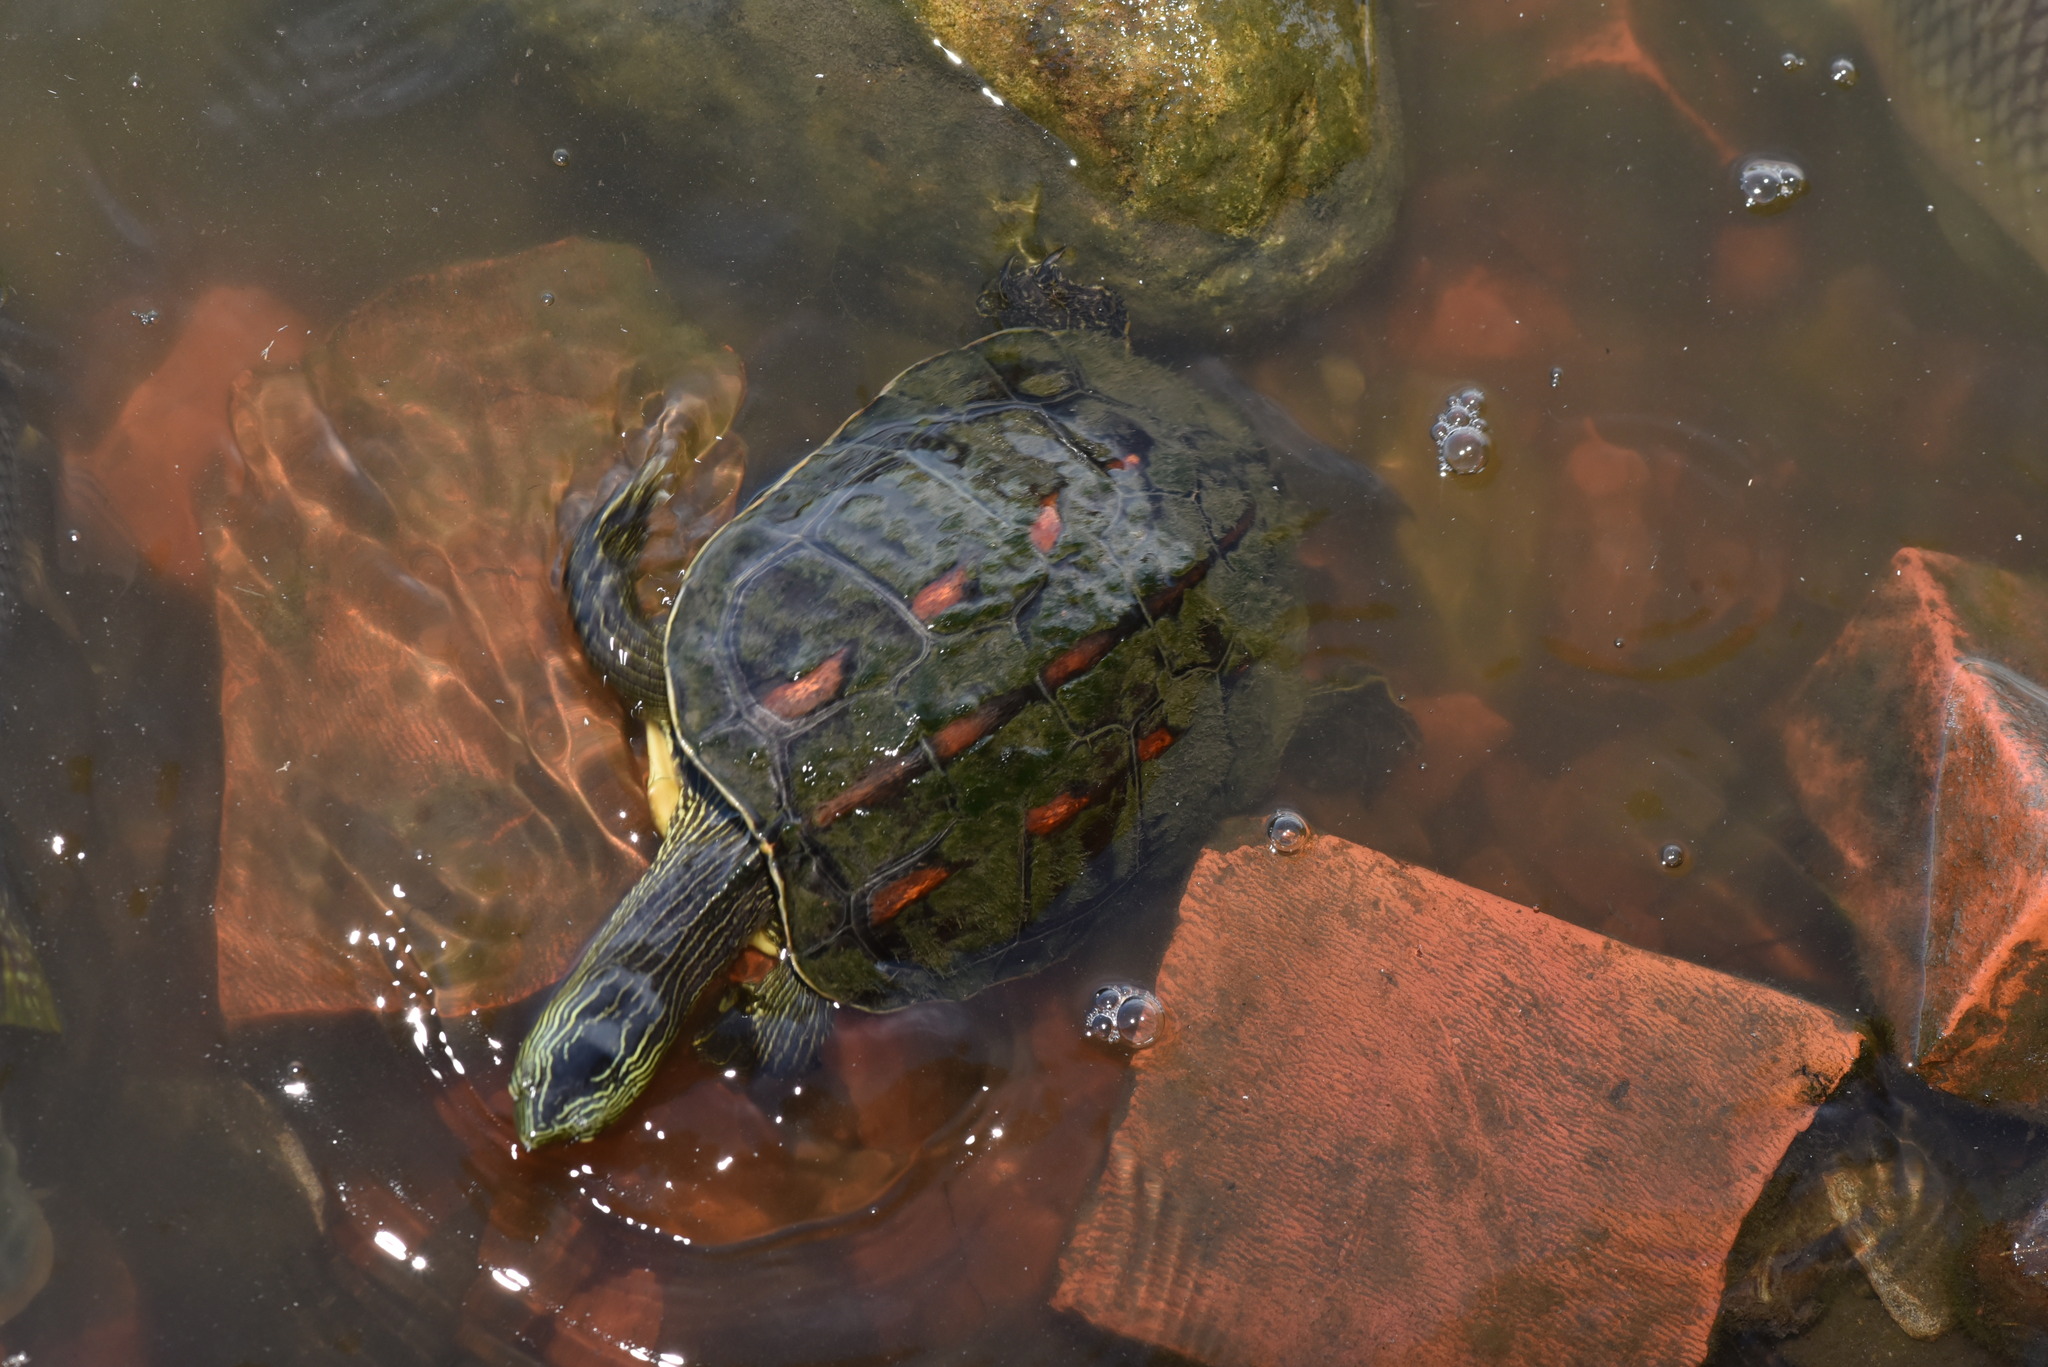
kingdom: Animalia
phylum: Chordata
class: Testudines
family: Geoemydidae
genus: Mauremys
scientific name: Mauremys sinensis
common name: Chinese stripe-necked turtle
